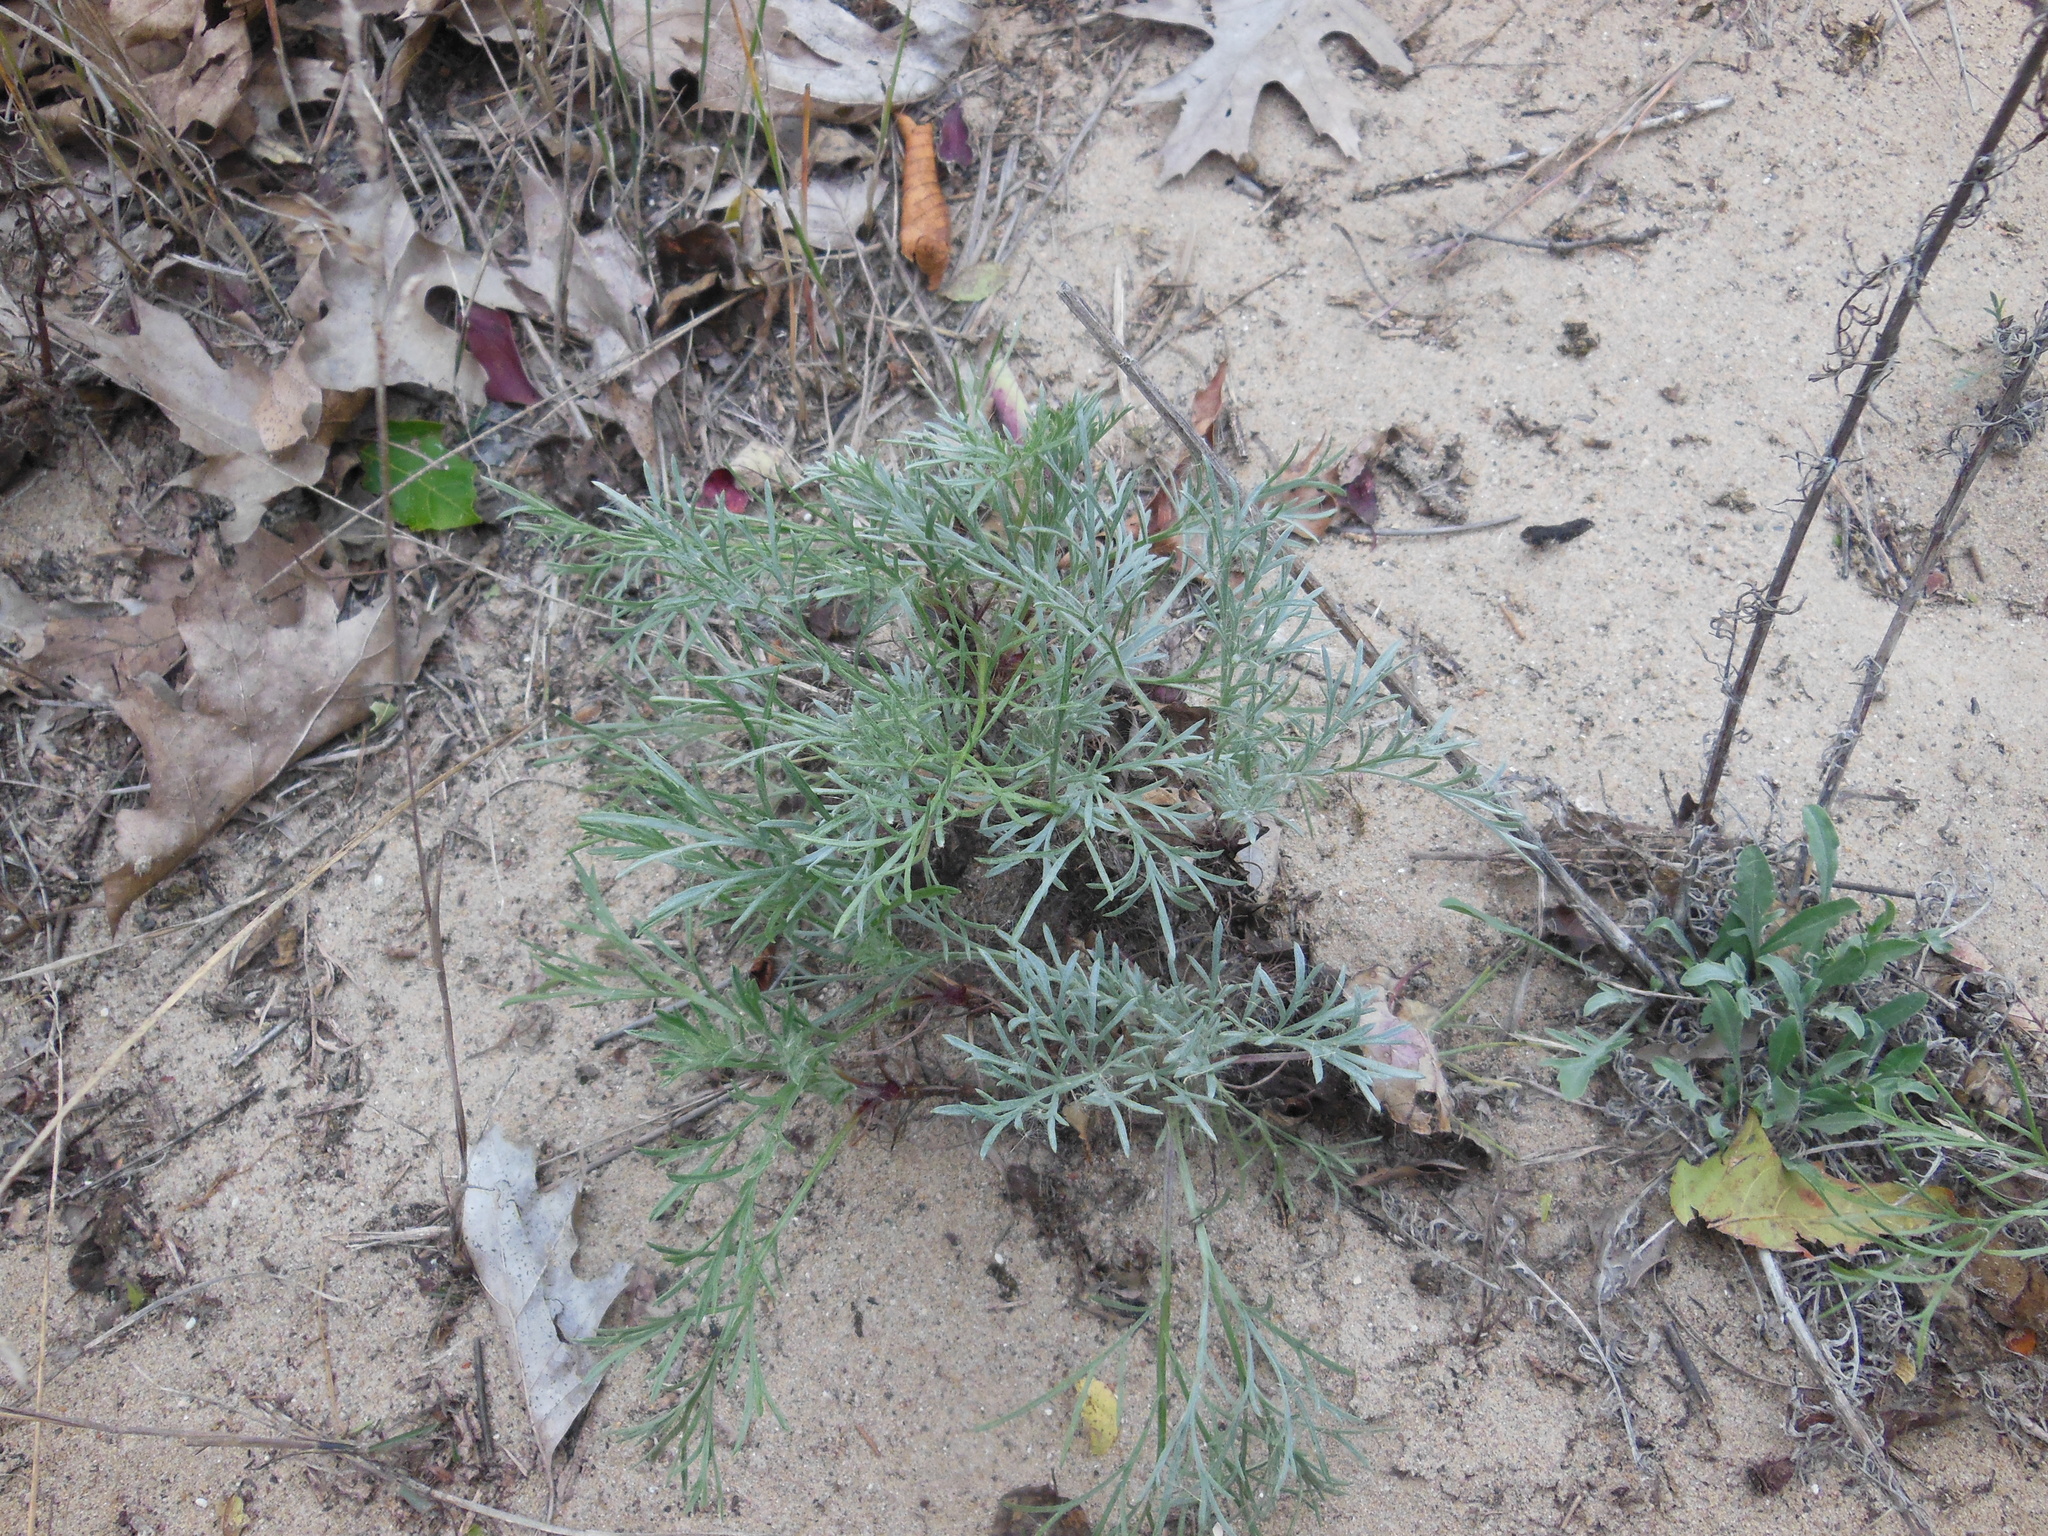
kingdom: Plantae
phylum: Tracheophyta
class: Magnoliopsida
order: Asterales
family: Asteraceae
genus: Artemisia
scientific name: Artemisia campestris
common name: Field wormwood
